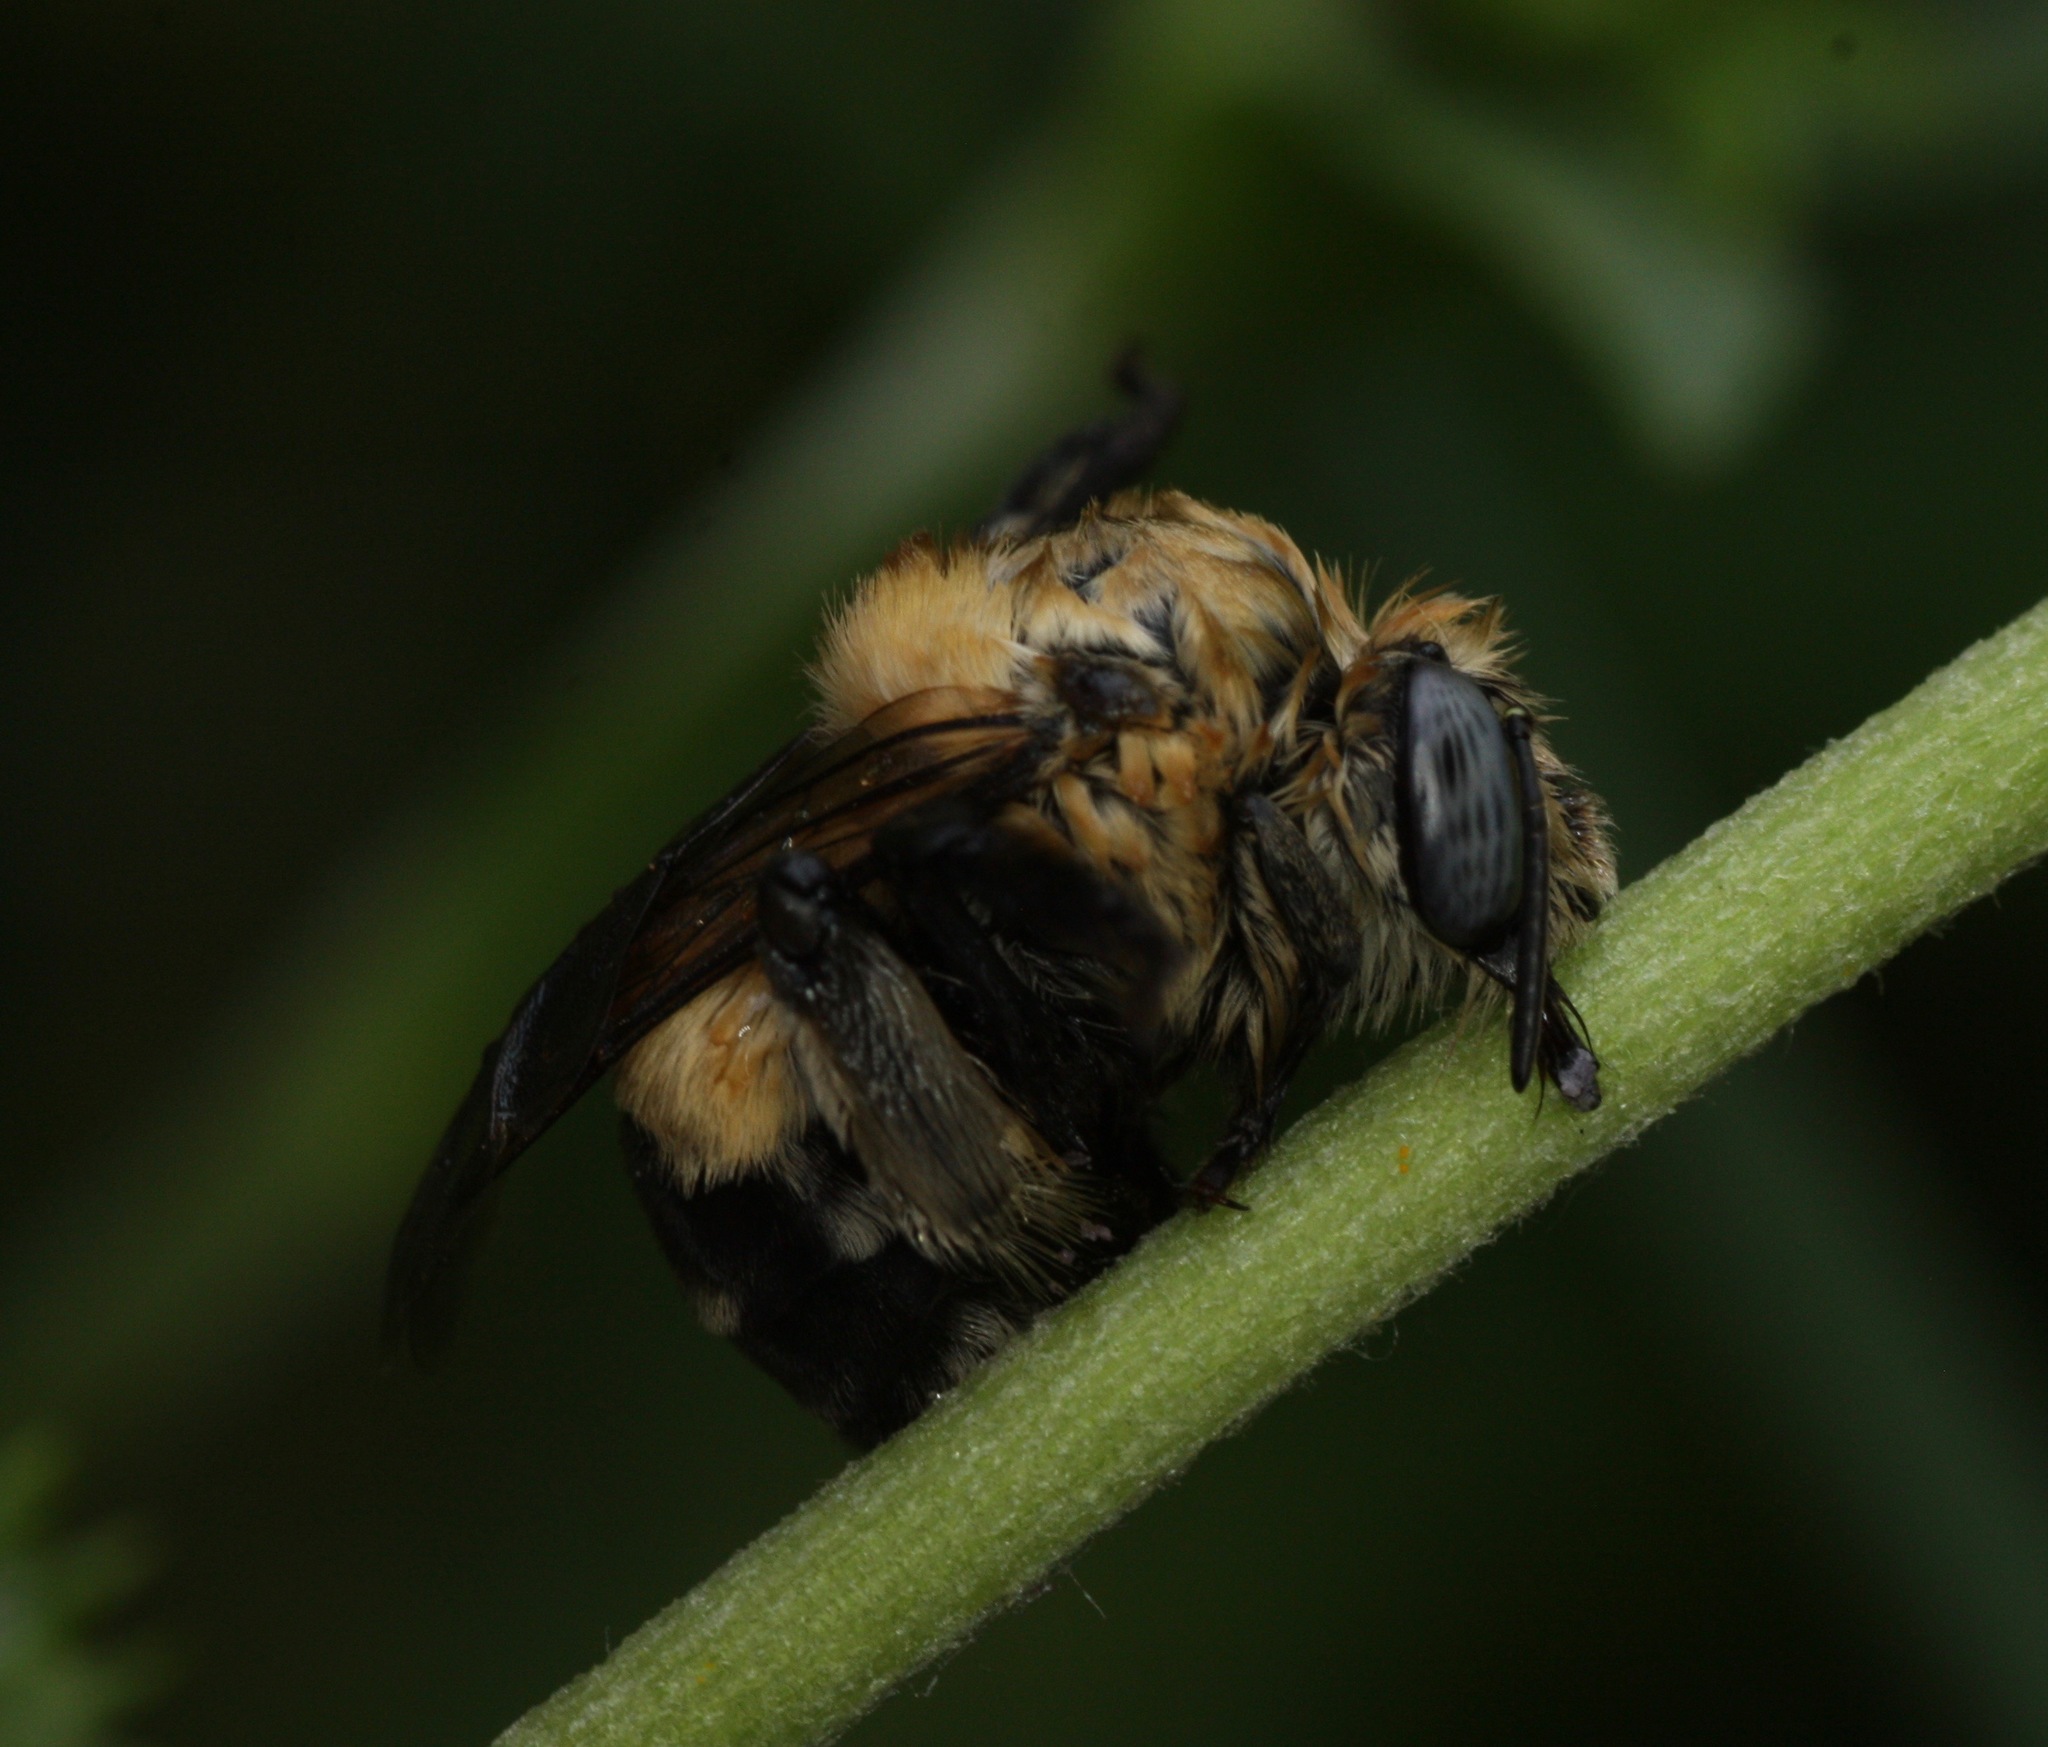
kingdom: Animalia
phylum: Arthropoda
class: Insecta
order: Hymenoptera
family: Apidae
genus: Anthophora
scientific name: Anthophora montana
